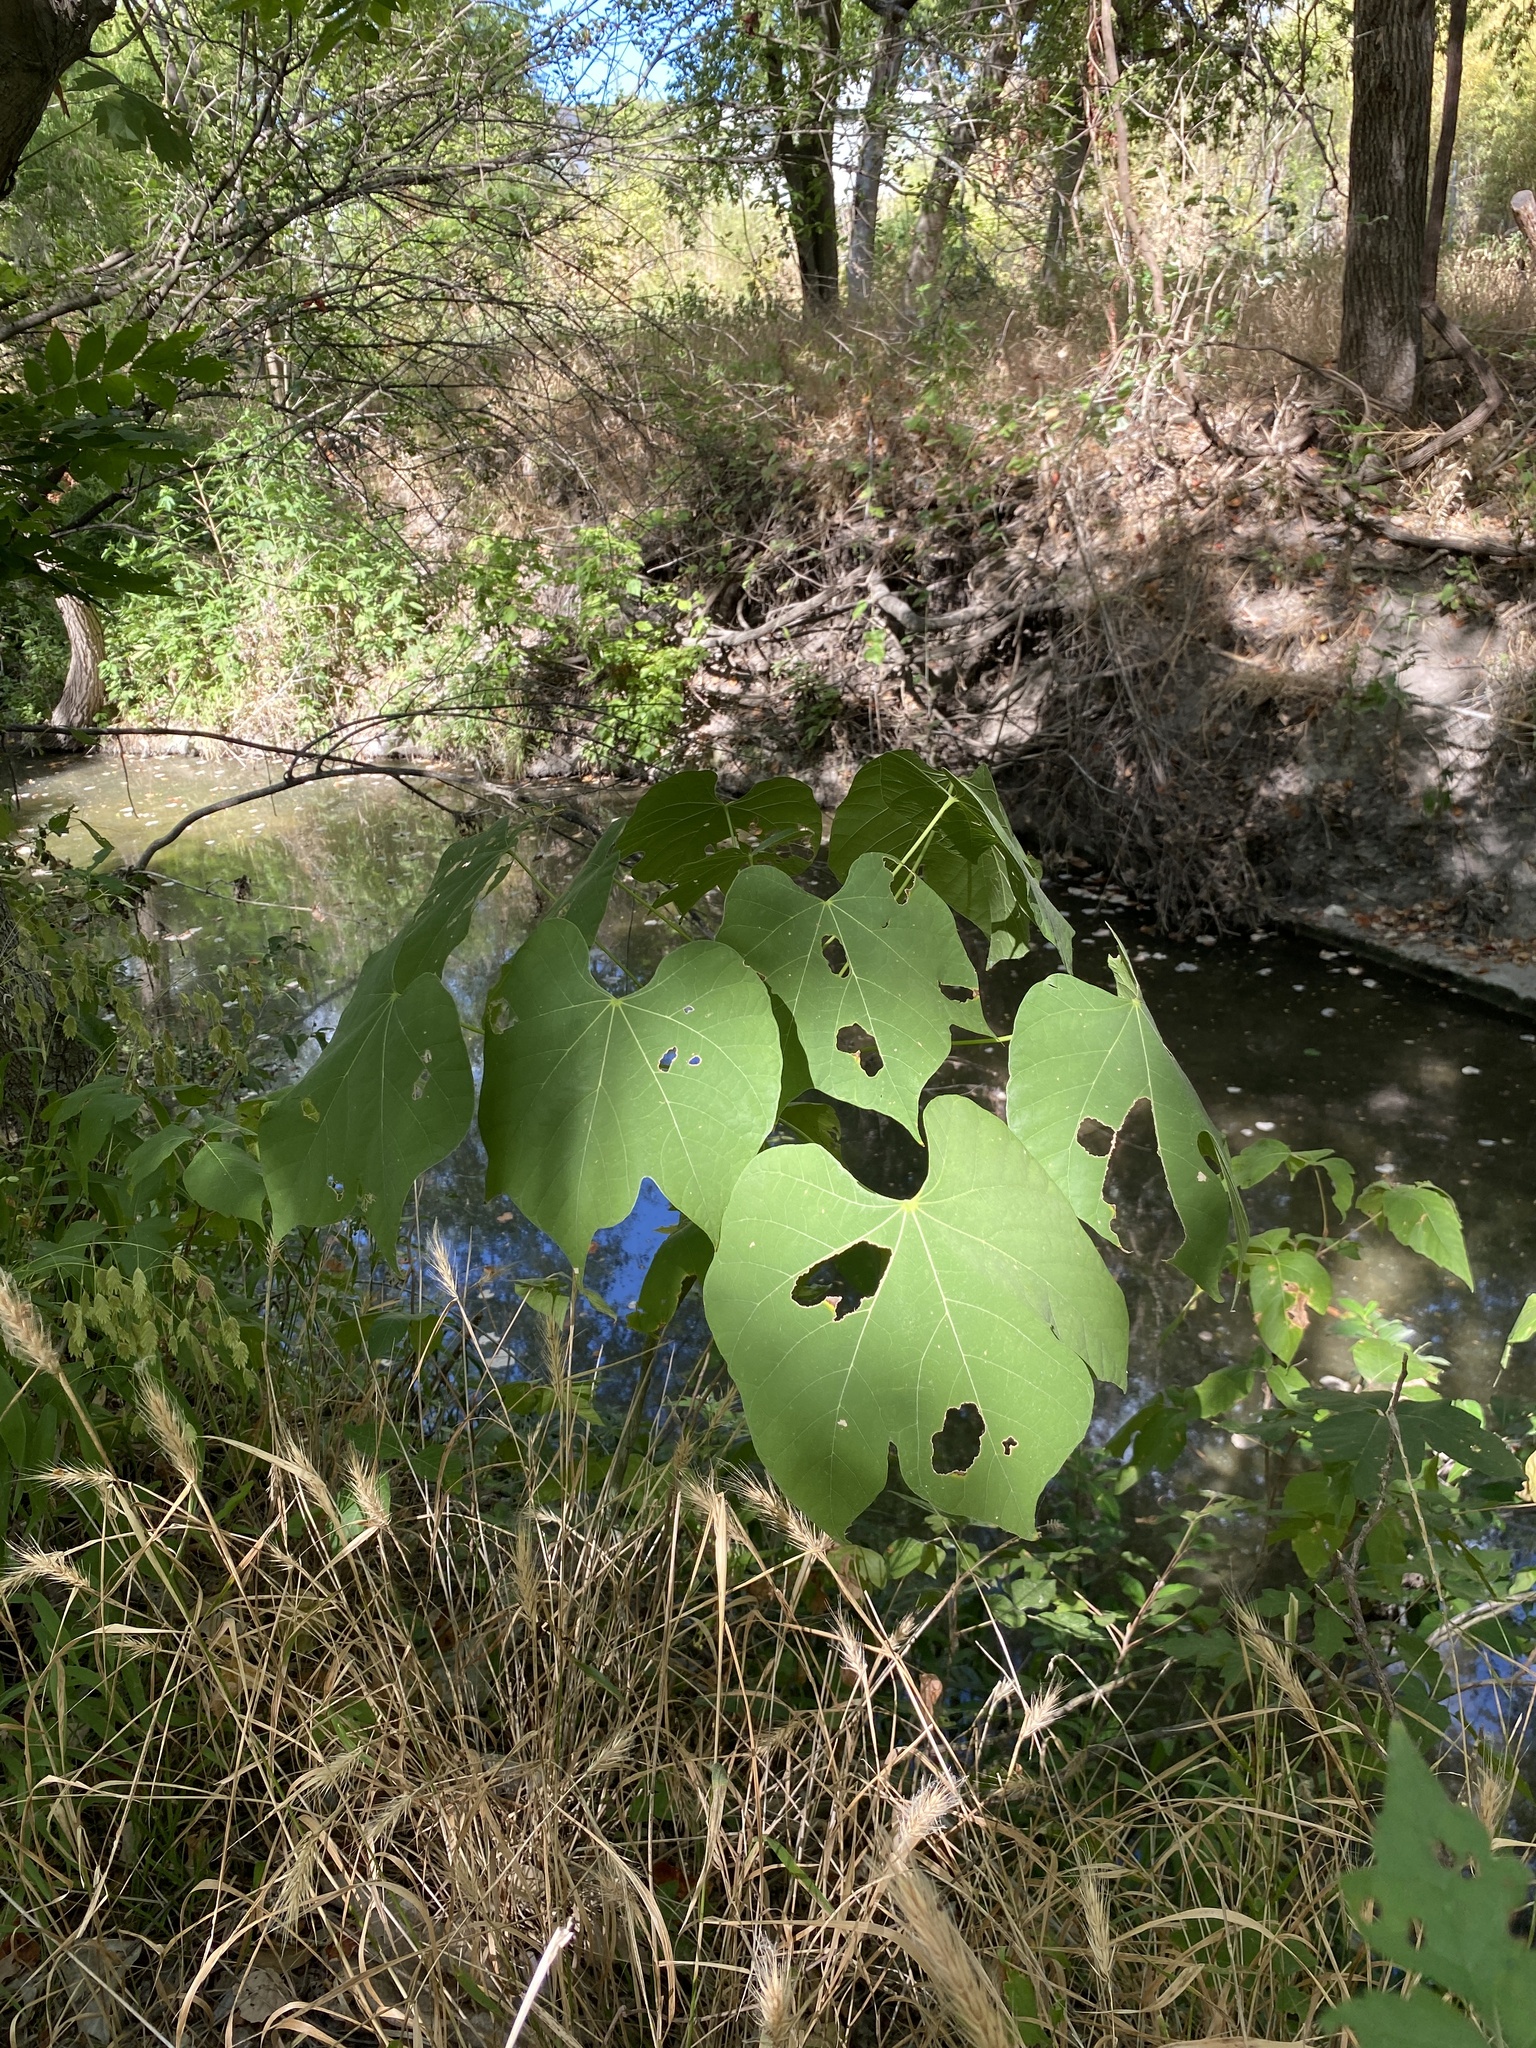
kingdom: Plantae
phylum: Tracheophyta
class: Magnoliopsida
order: Malvales
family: Malvaceae
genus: Firmiana
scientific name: Firmiana simplex
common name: Chinese parasoltree
